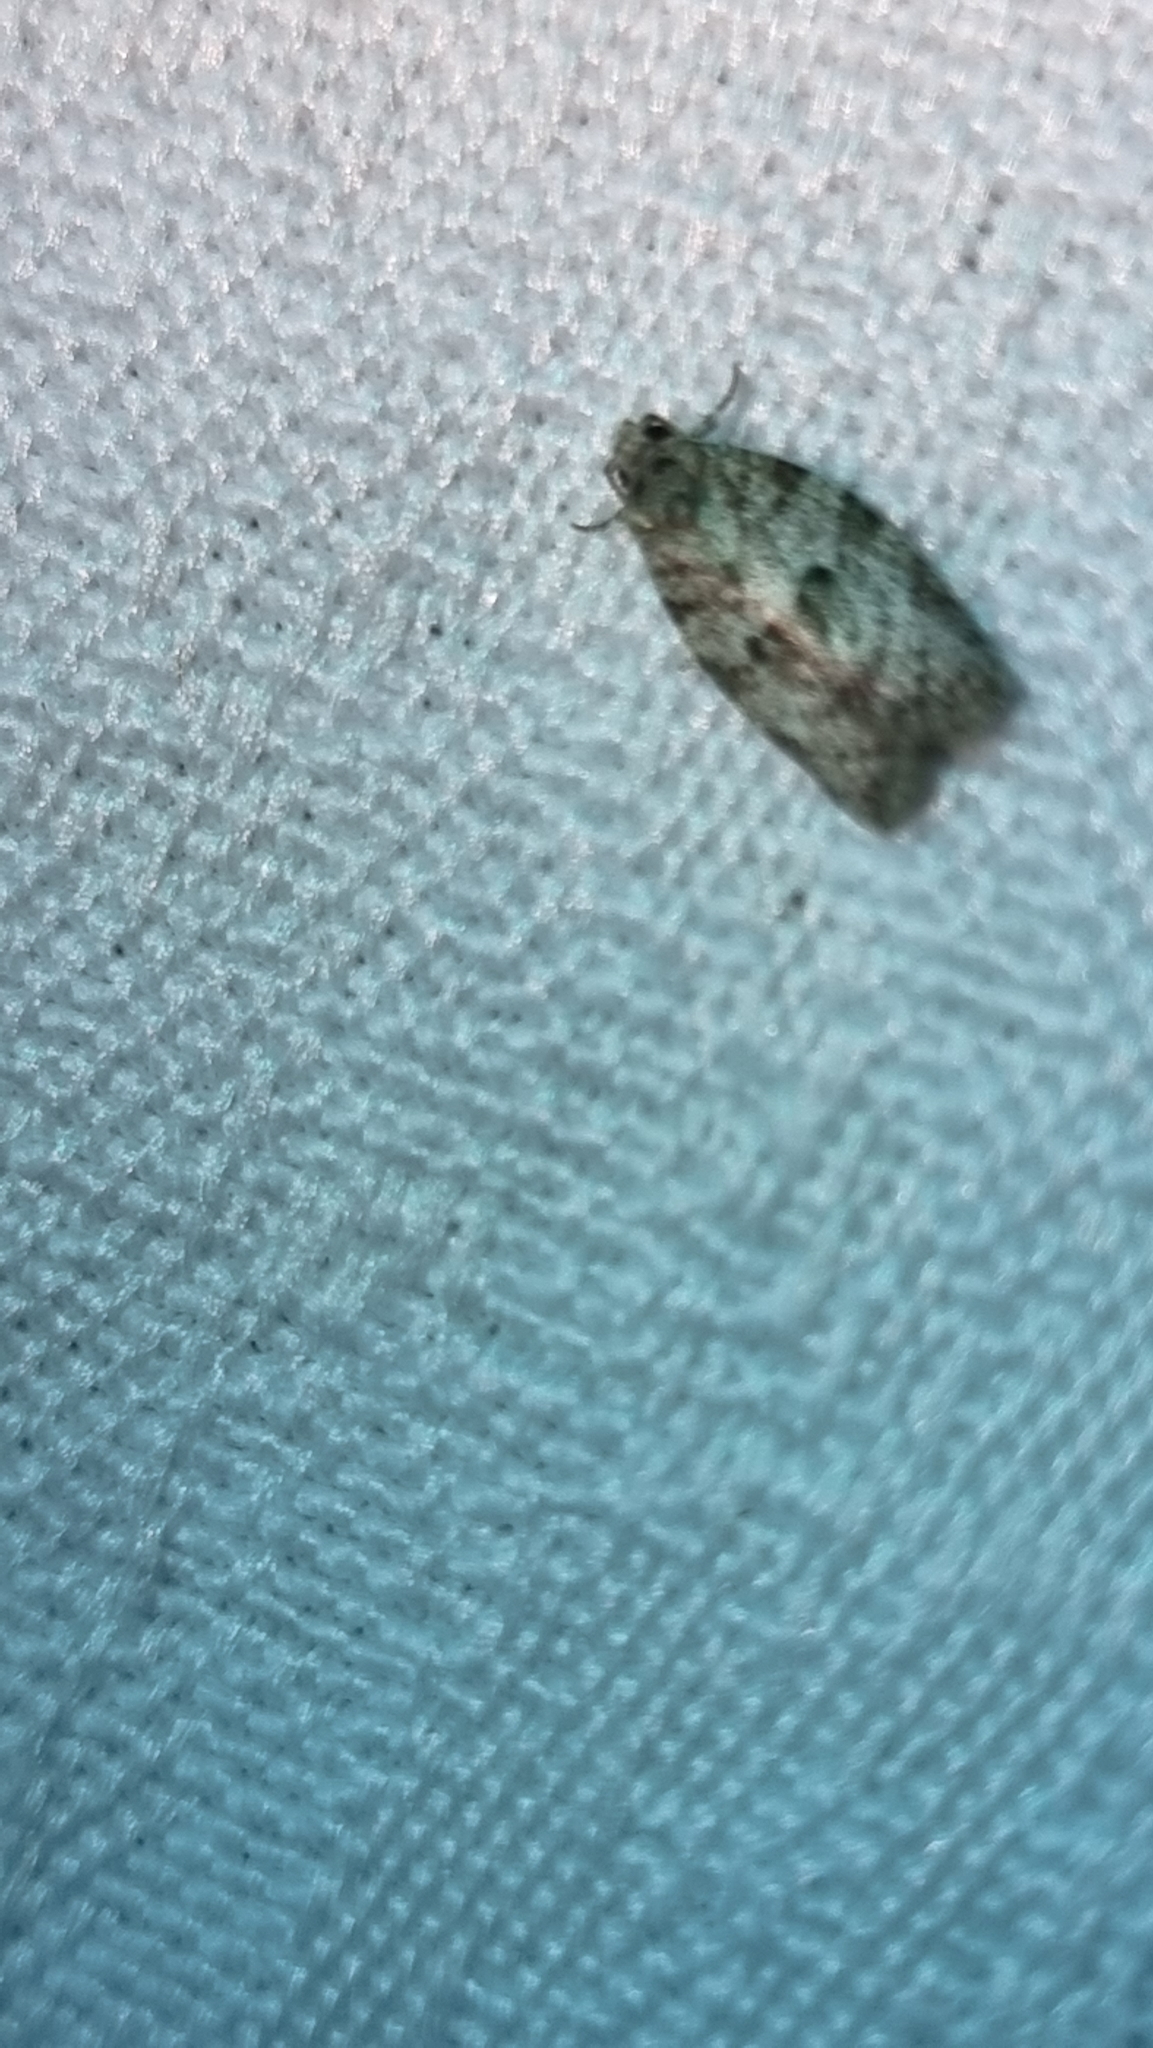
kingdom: Animalia
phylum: Arthropoda
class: Insecta
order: Lepidoptera
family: Tortricidae
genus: Isotenes
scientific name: Isotenes miserana
